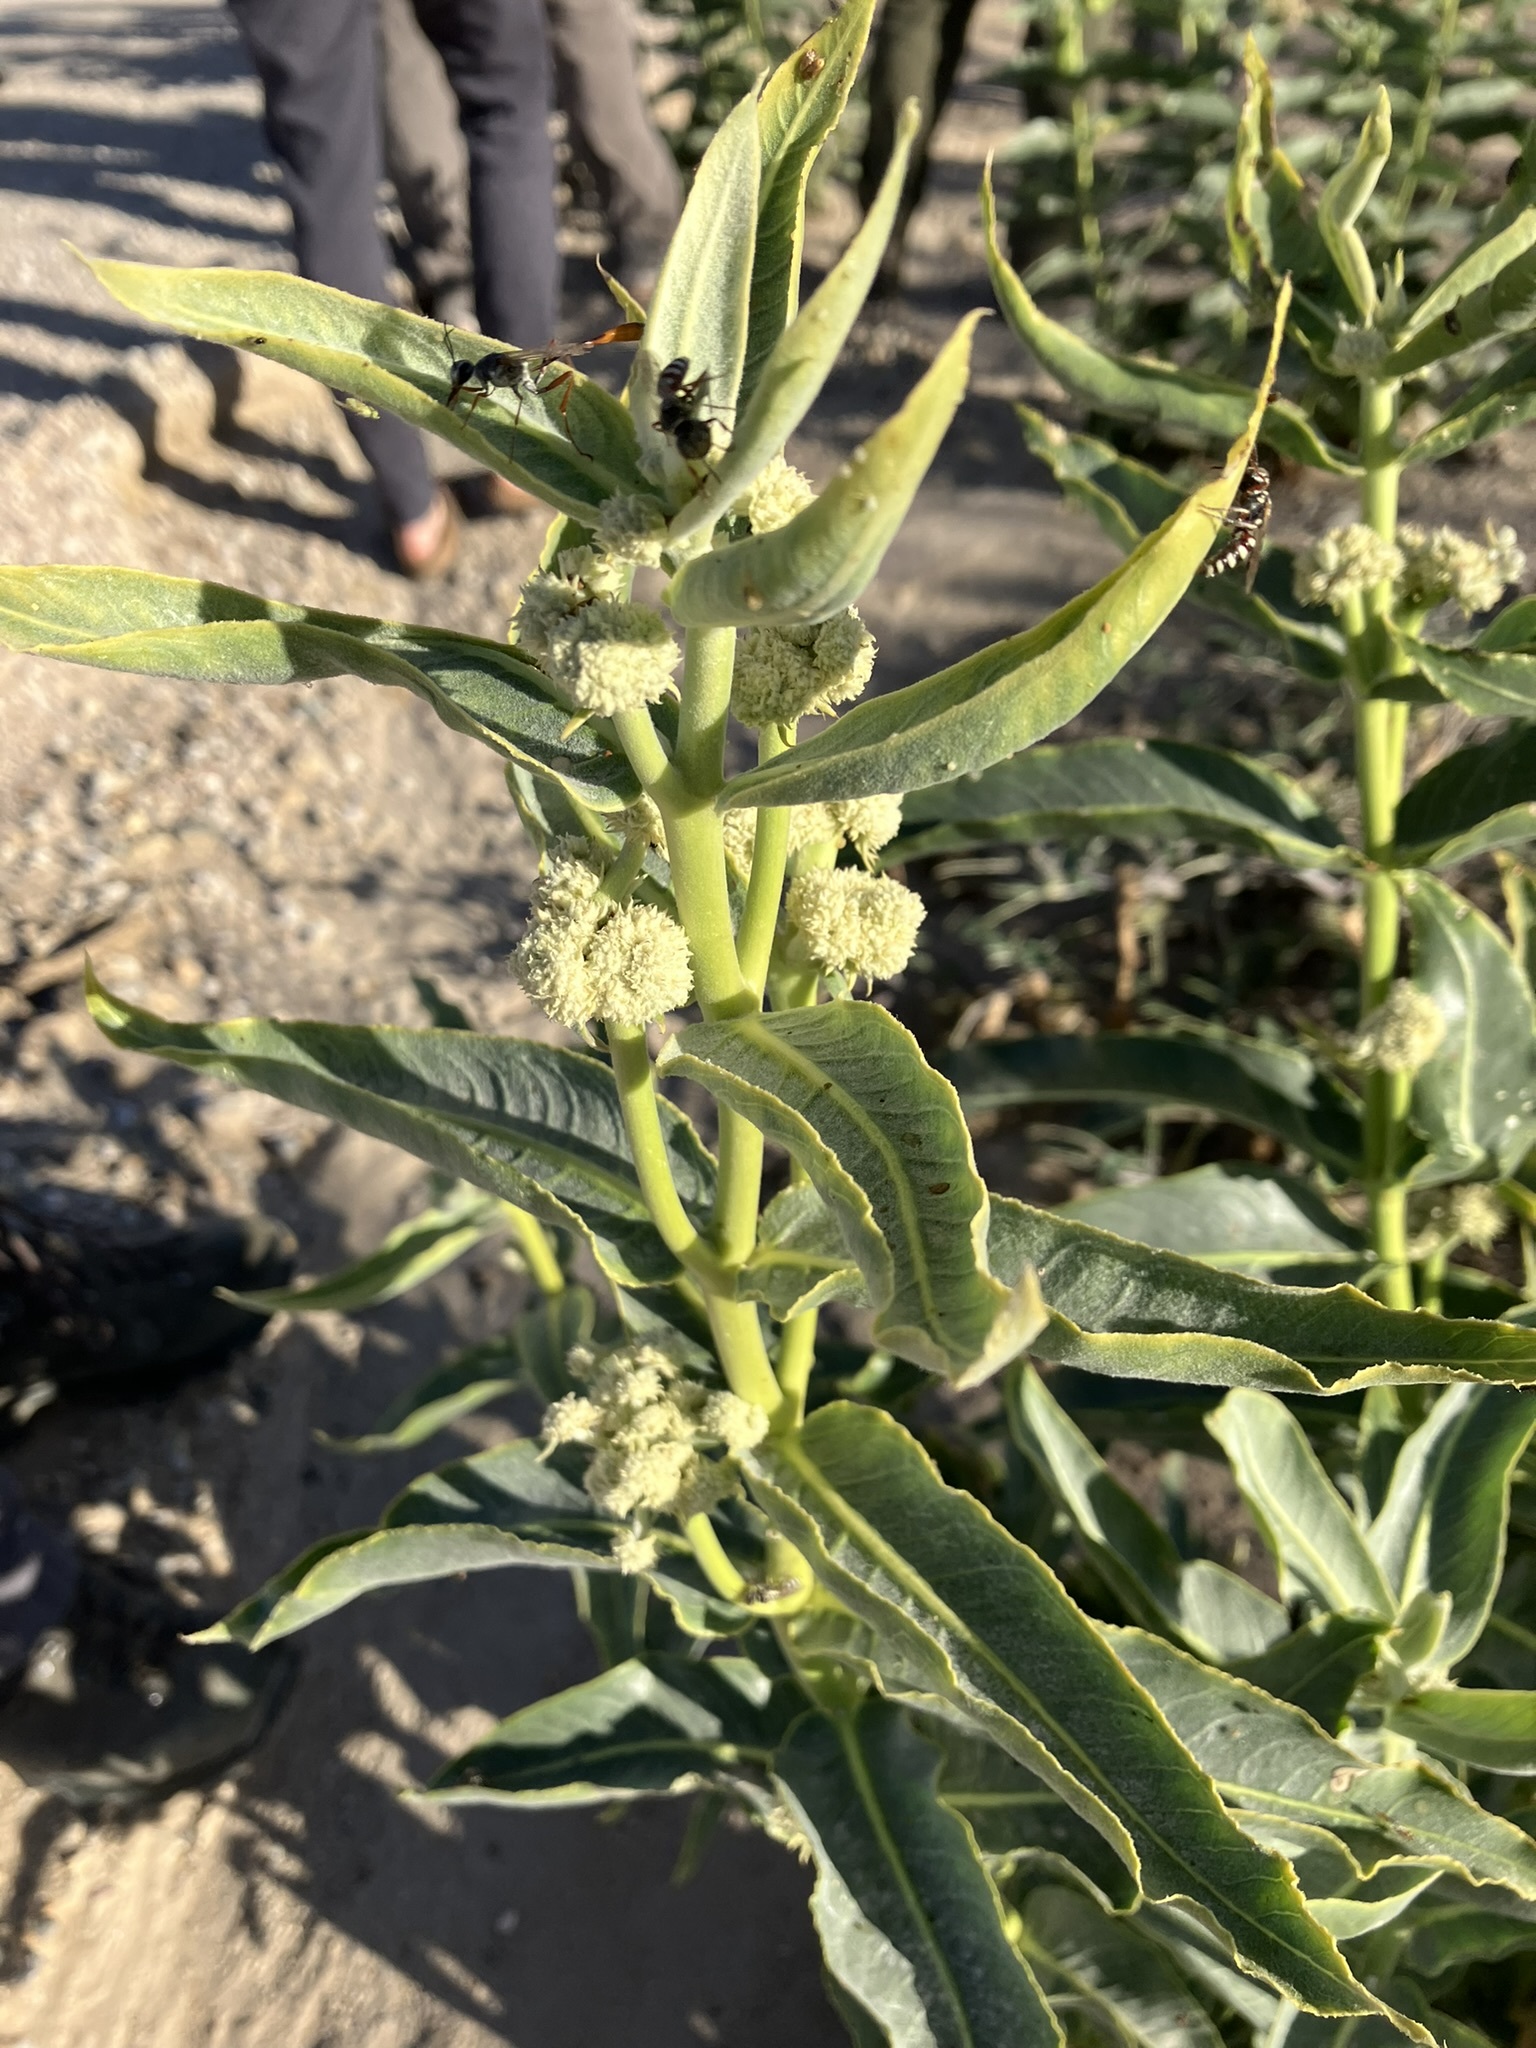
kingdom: Plantae
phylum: Tracheophyta
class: Magnoliopsida
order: Gentianales
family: Apocynaceae
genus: Asclepias
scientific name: Asclepias erosa
